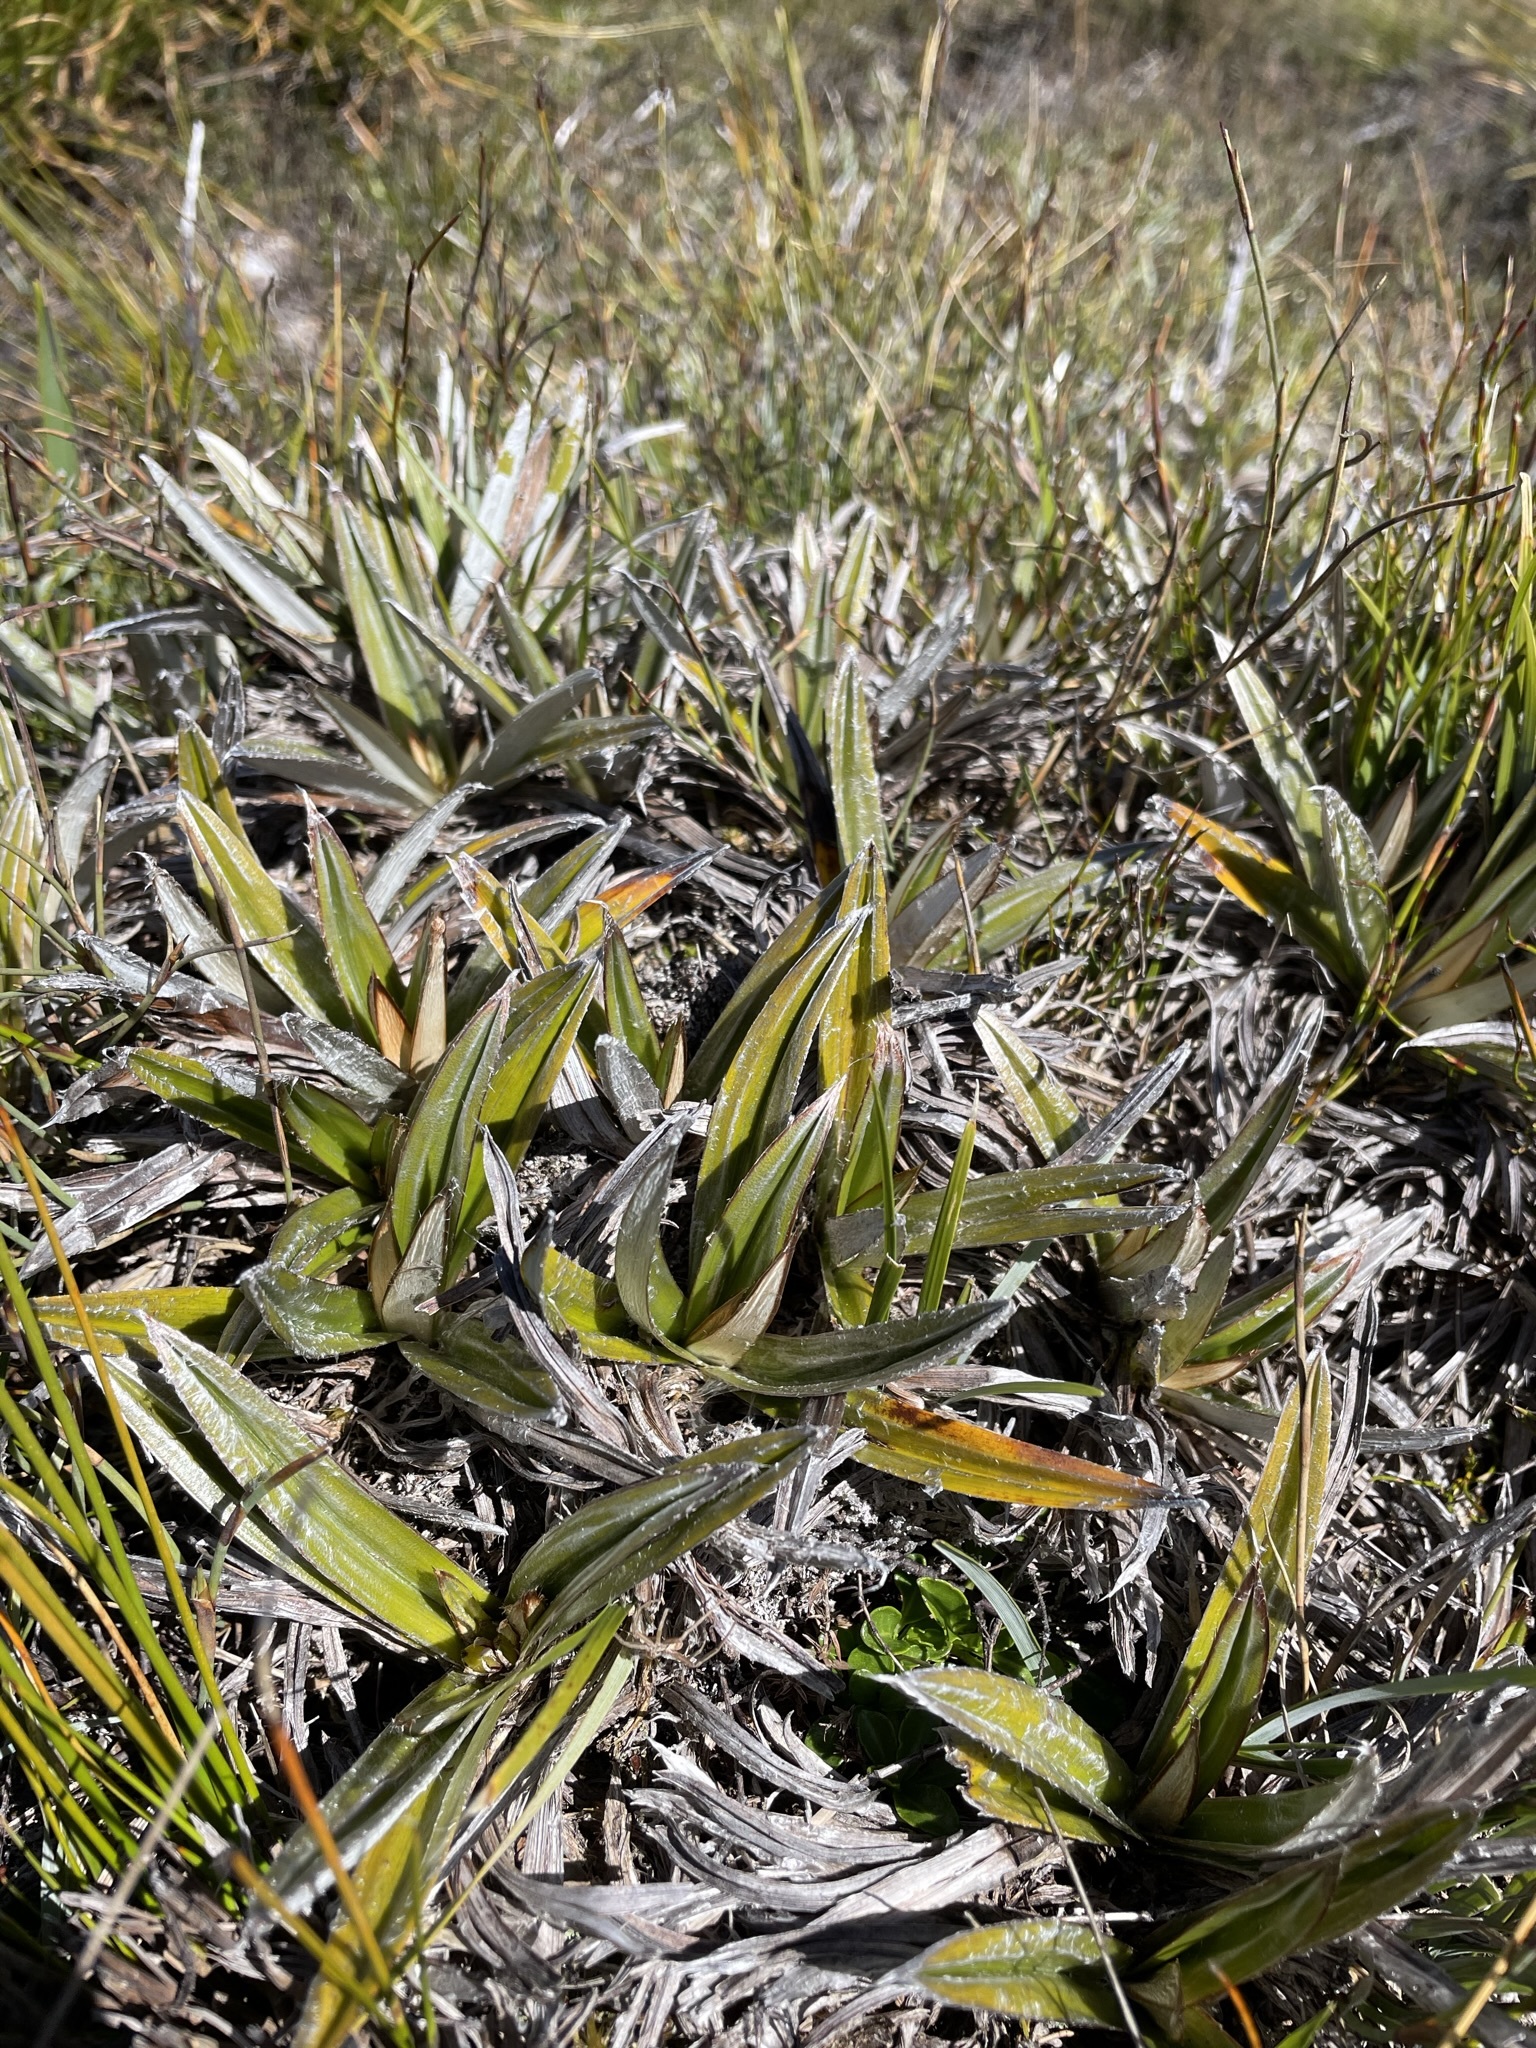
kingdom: Plantae
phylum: Tracheophyta
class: Liliopsida
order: Asparagales
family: Asteliaceae
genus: Astelia
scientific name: Astelia alpina
